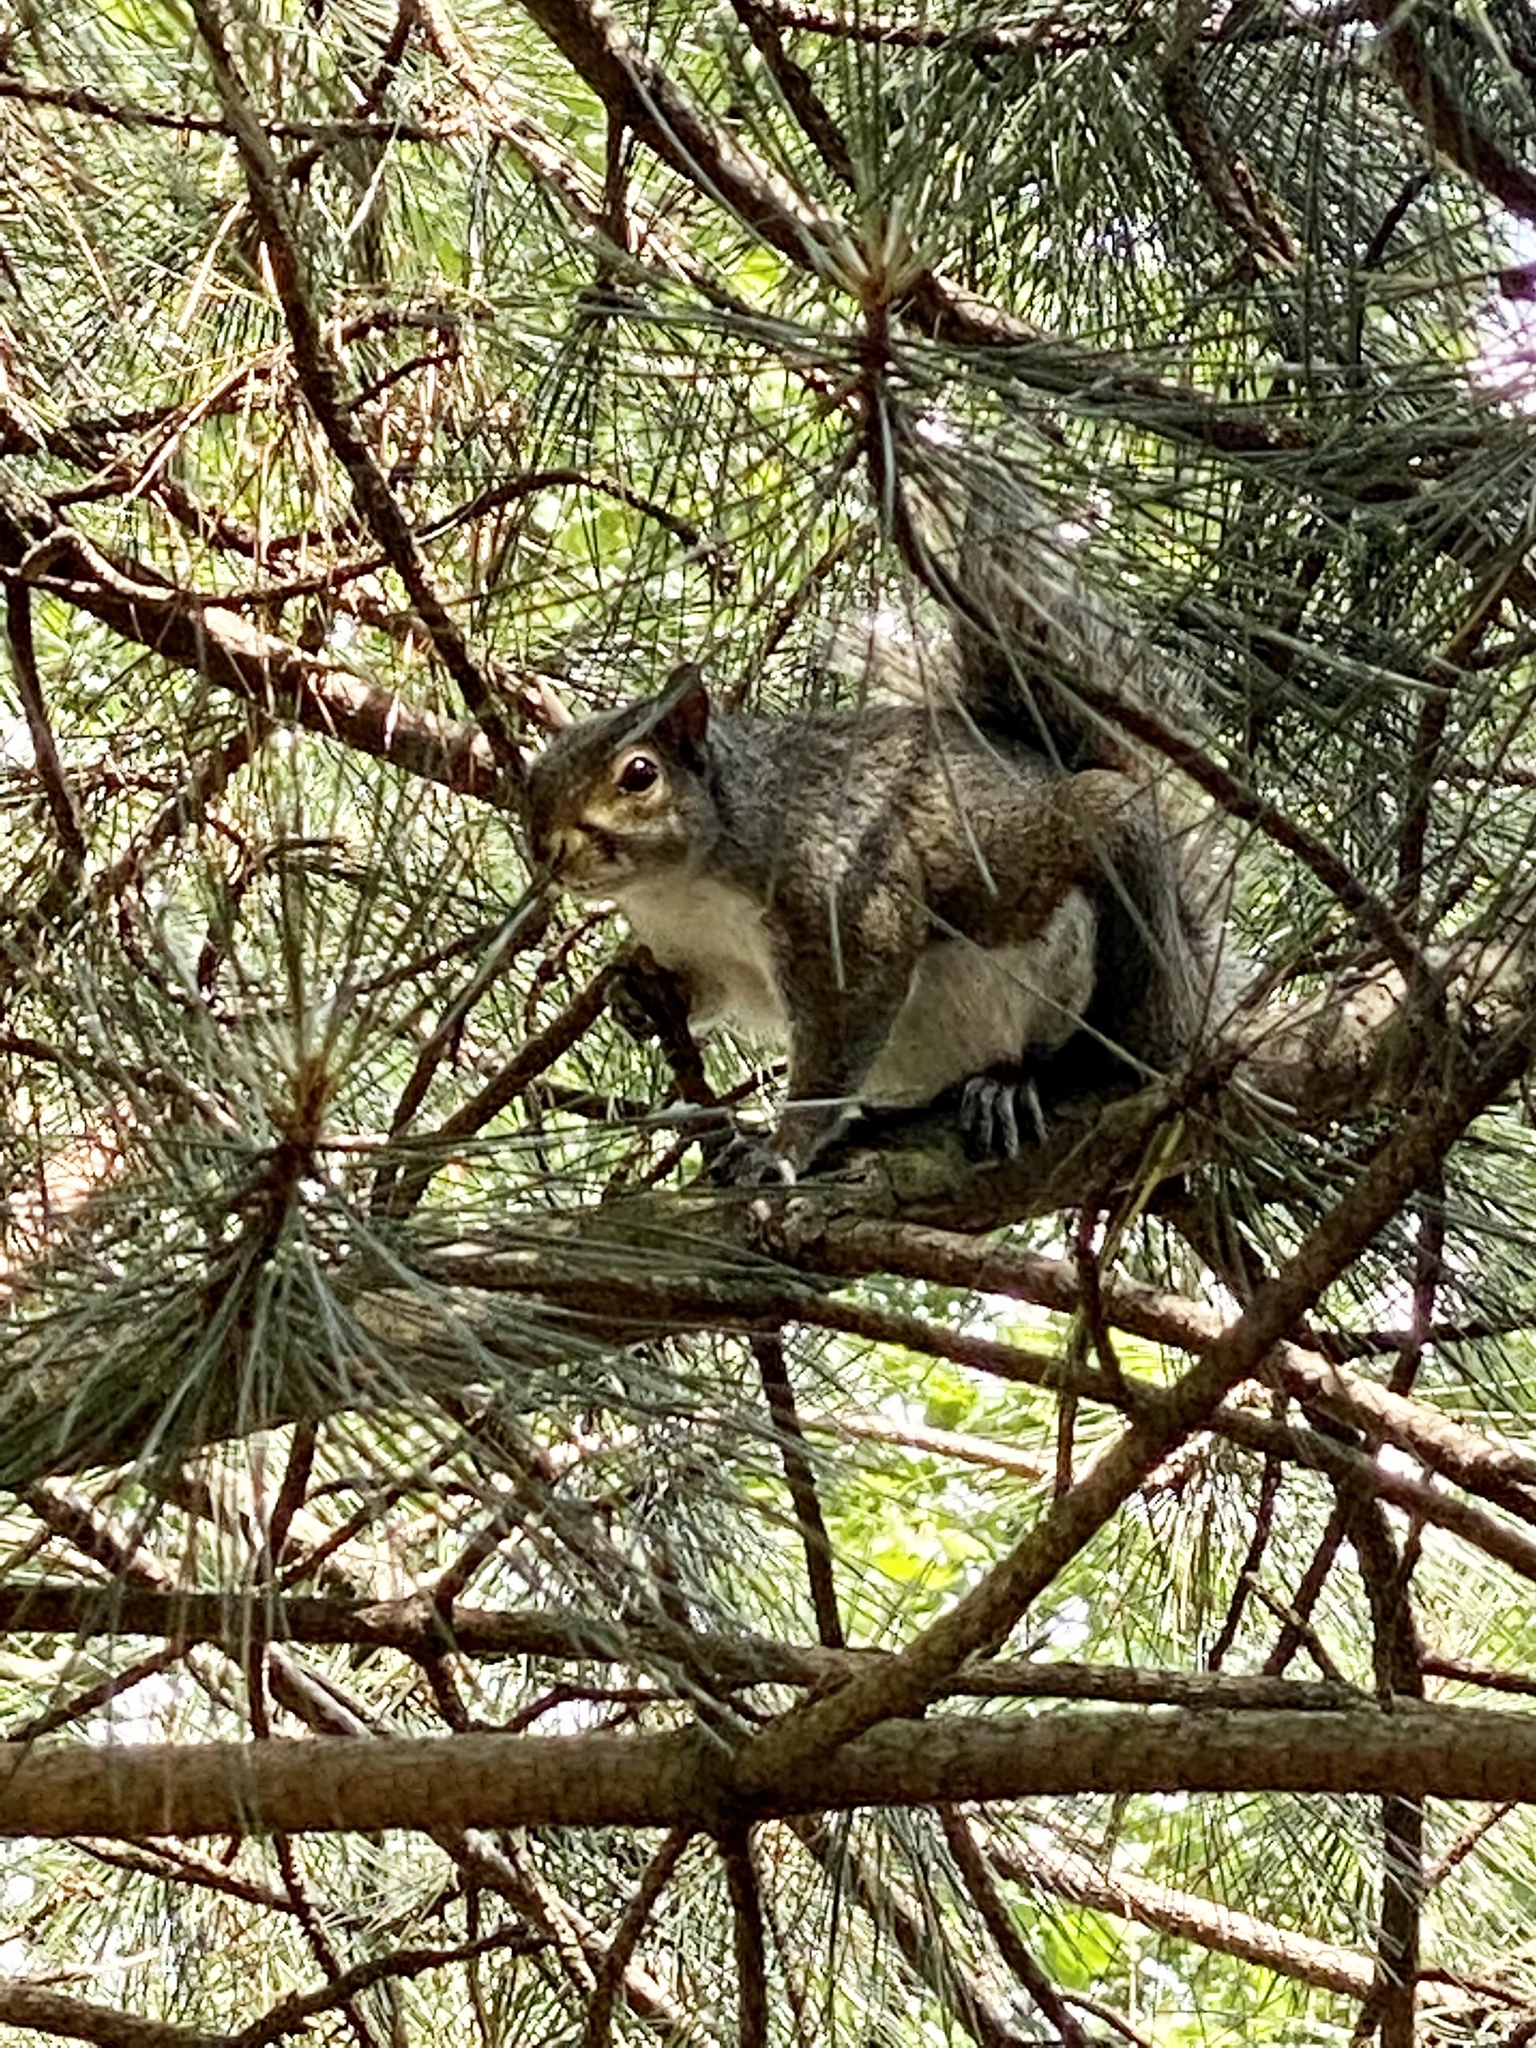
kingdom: Animalia
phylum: Chordata
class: Mammalia
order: Rodentia
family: Sciuridae
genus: Sciurus
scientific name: Sciurus carolinensis
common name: Eastern gray squirrel
